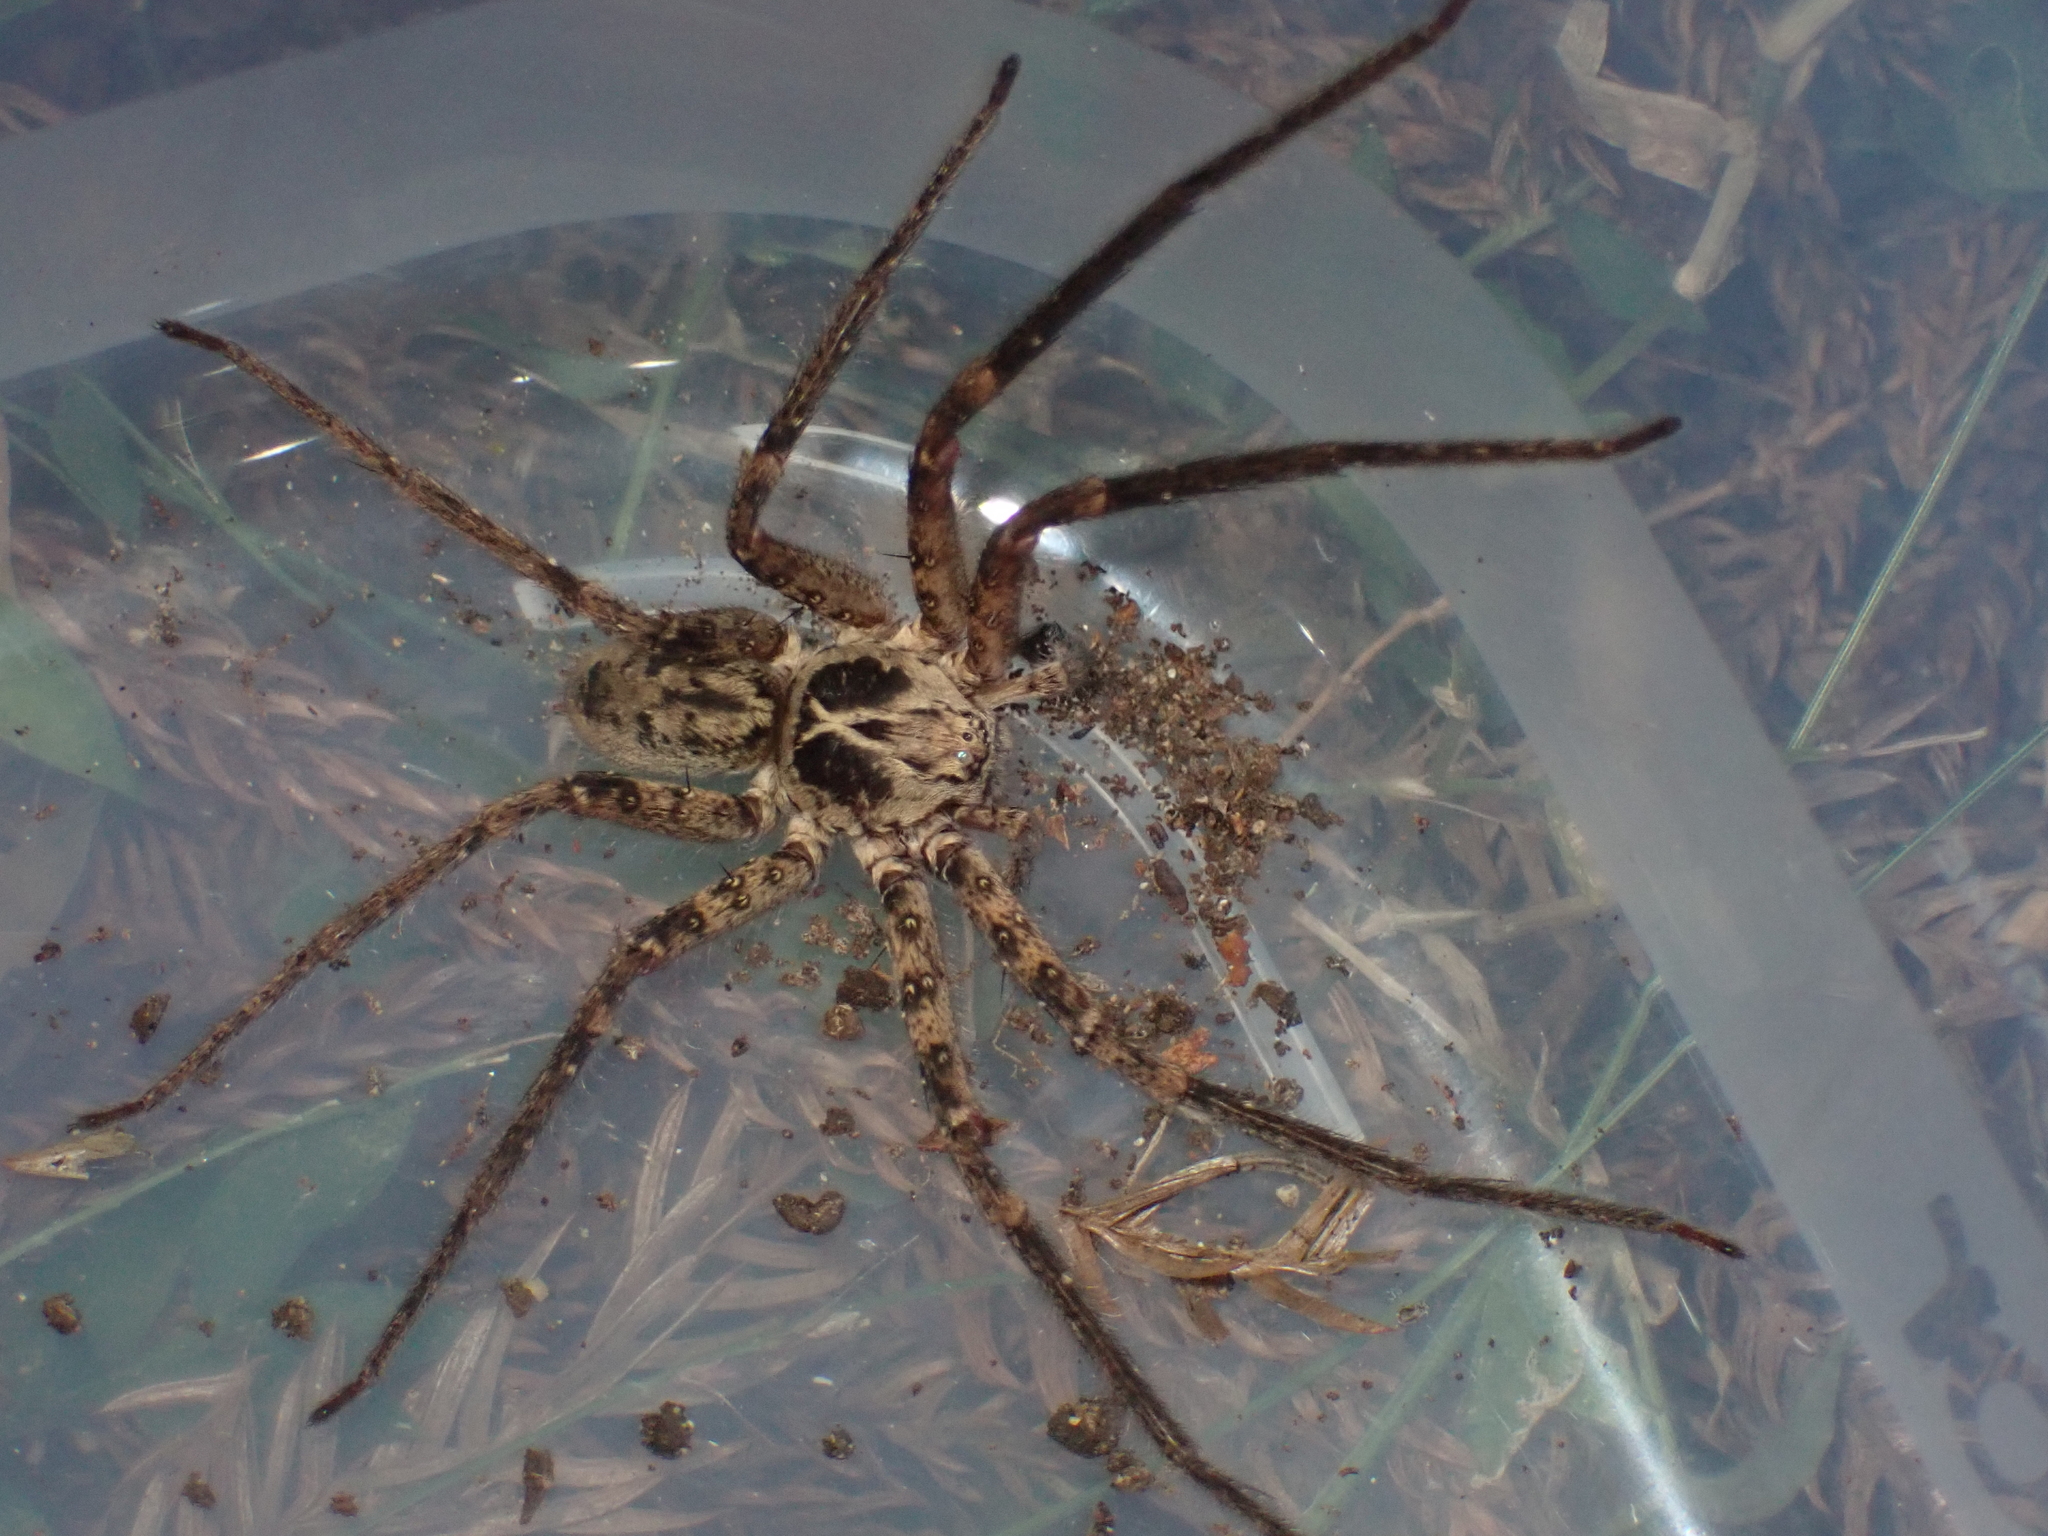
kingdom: Animalia
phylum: Arthropoda
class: Arachnida
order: Araneae
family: Sparassidae
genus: Heteropoda
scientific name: Heteropoda hillerae
